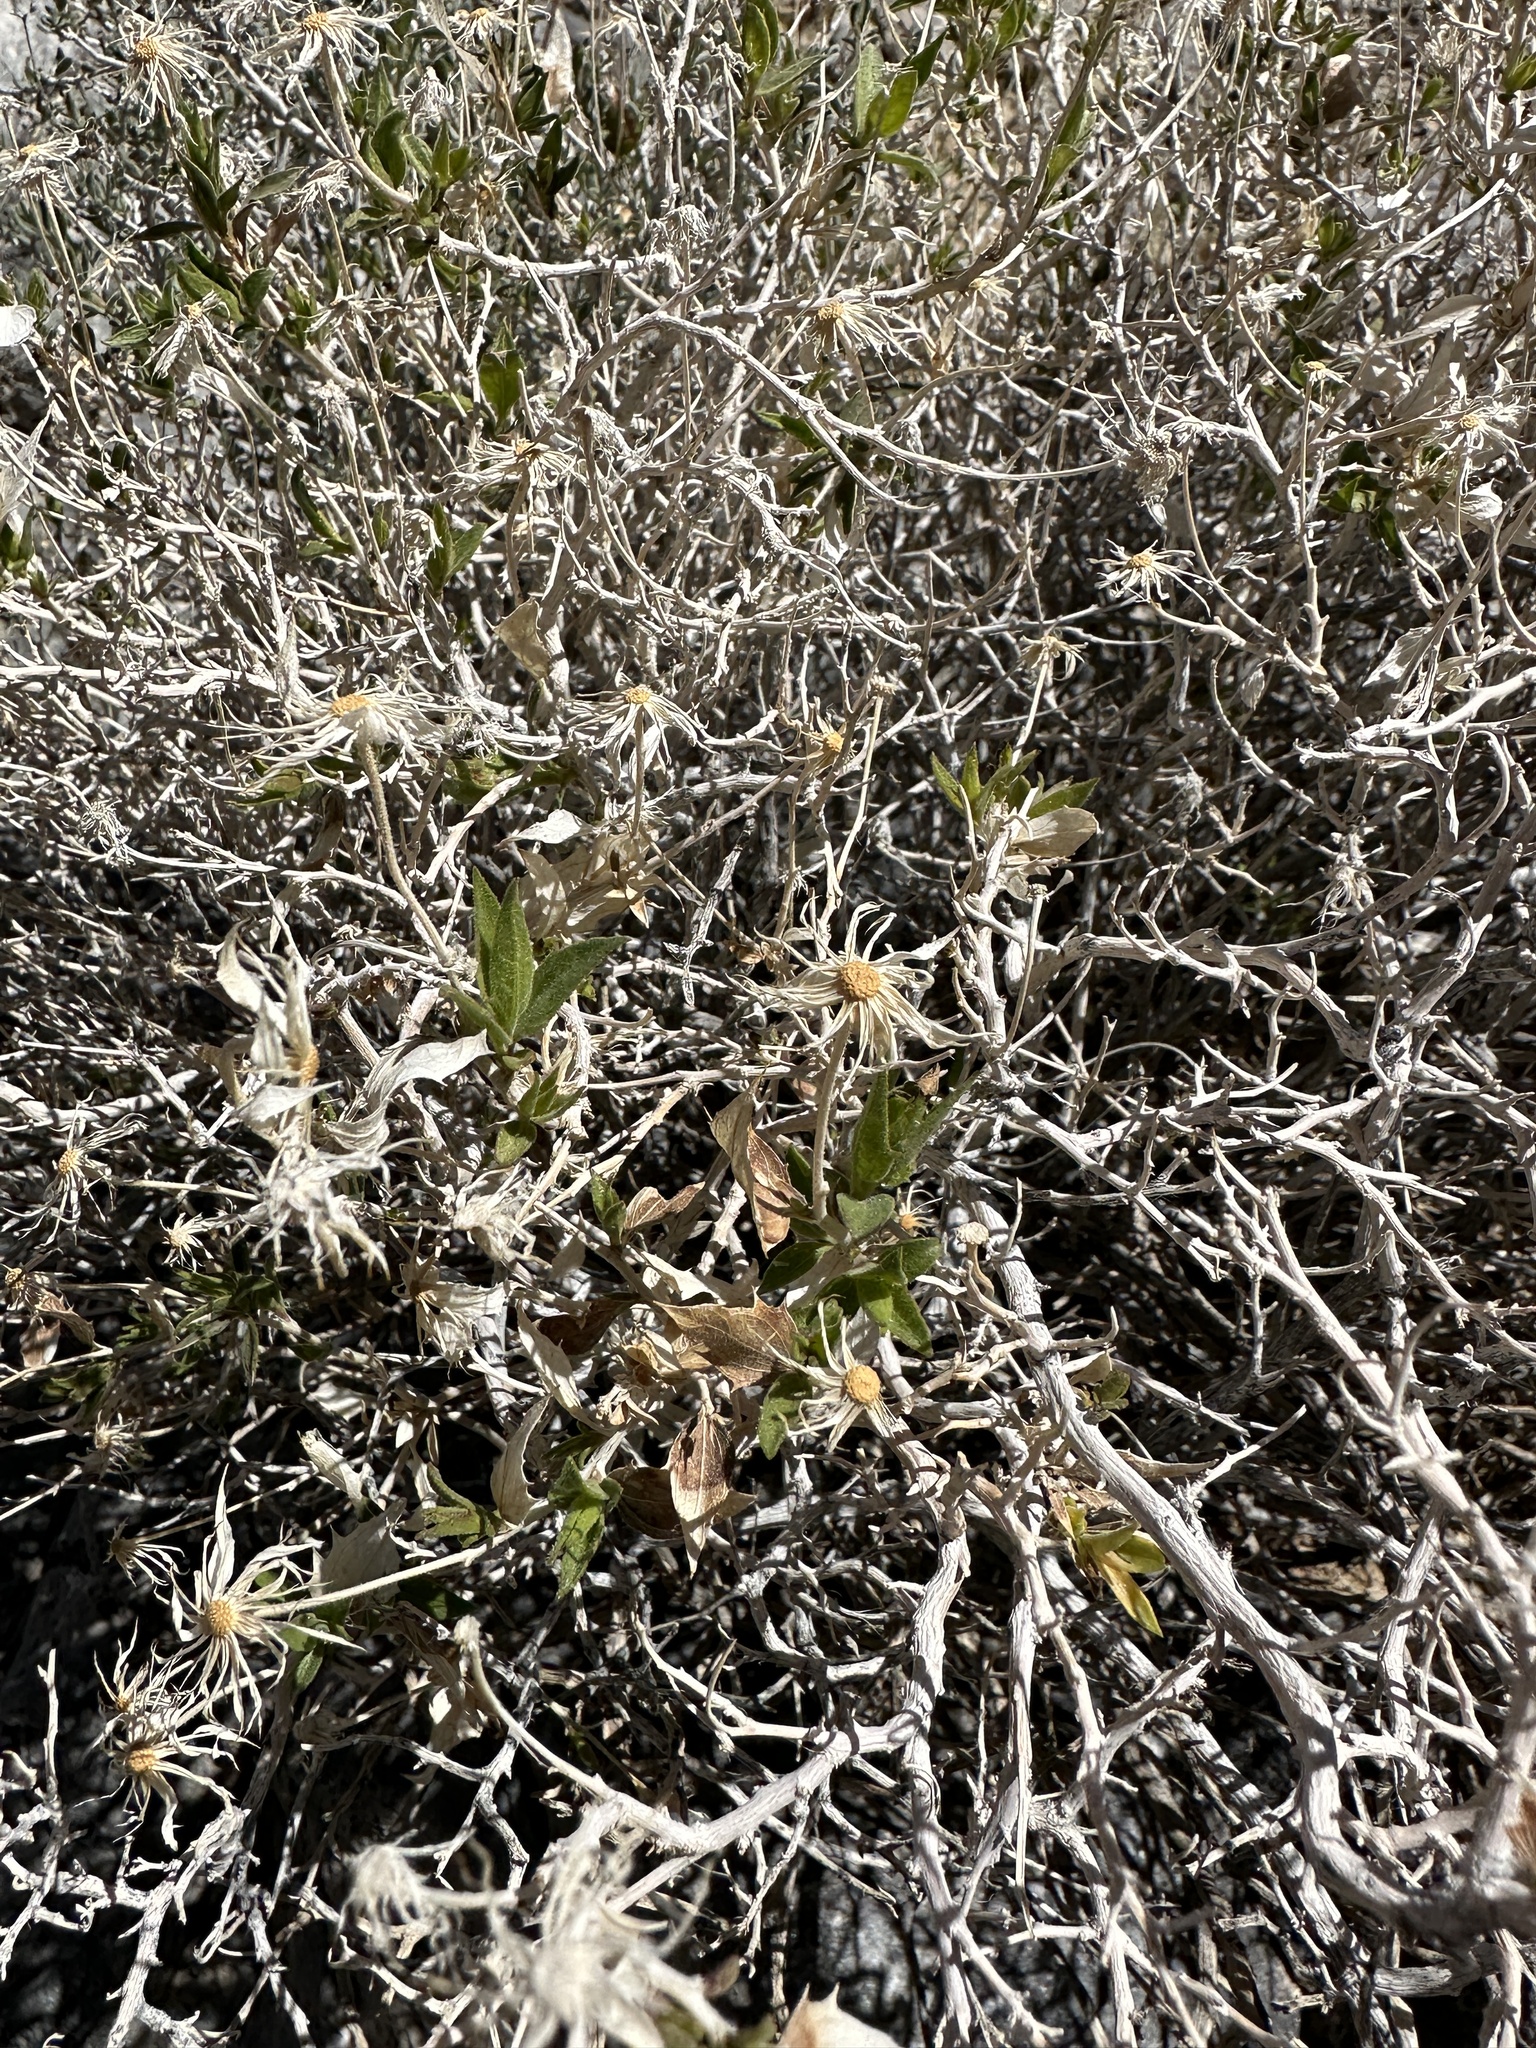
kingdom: Plantae
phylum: Tracheophyta
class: Magnoliopsida
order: Asterales
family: Asteraceae
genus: Brickellia
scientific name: Brickellia atractyloides
